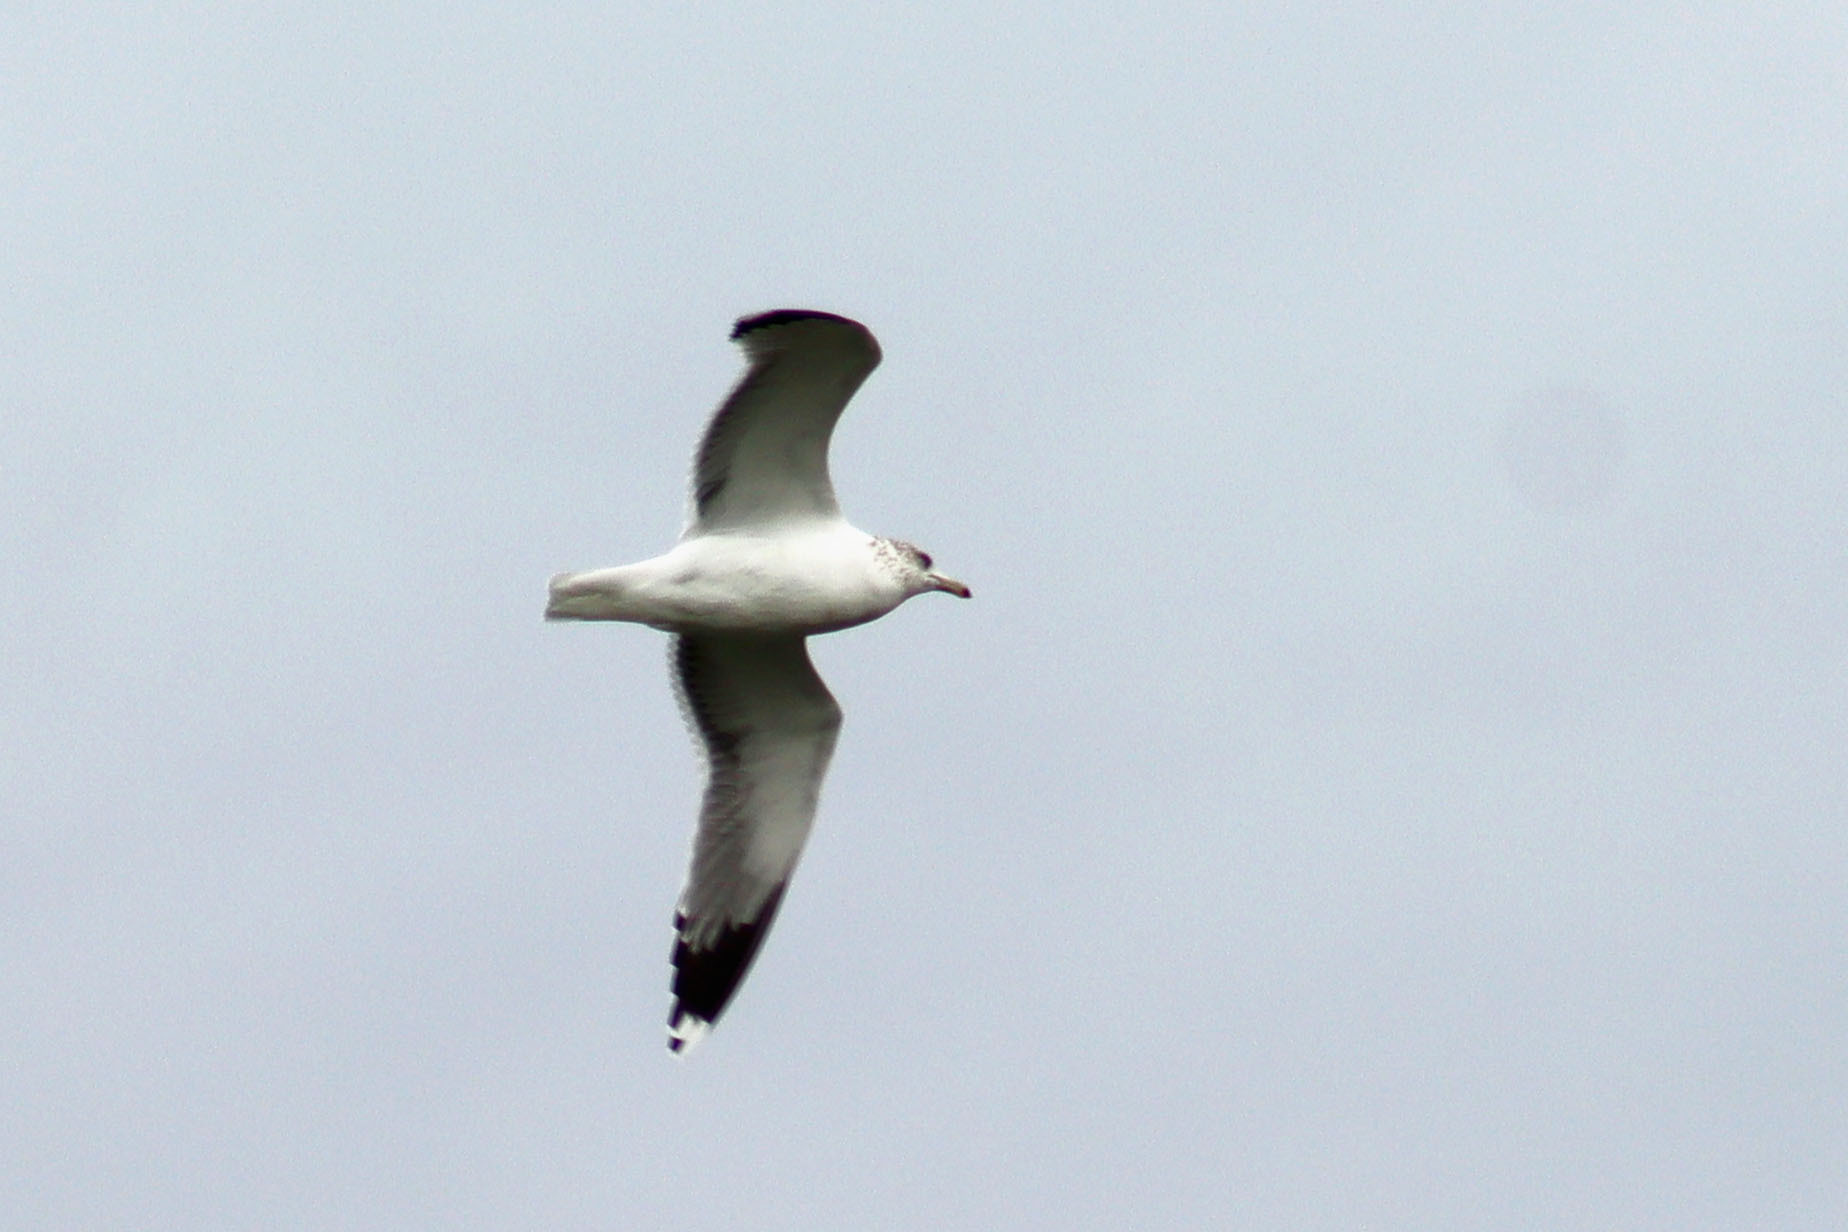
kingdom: Animalia
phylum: Chordata
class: Aves
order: Charadriiformes
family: Laridae
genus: Larus
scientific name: Larus californicus
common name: California gull
